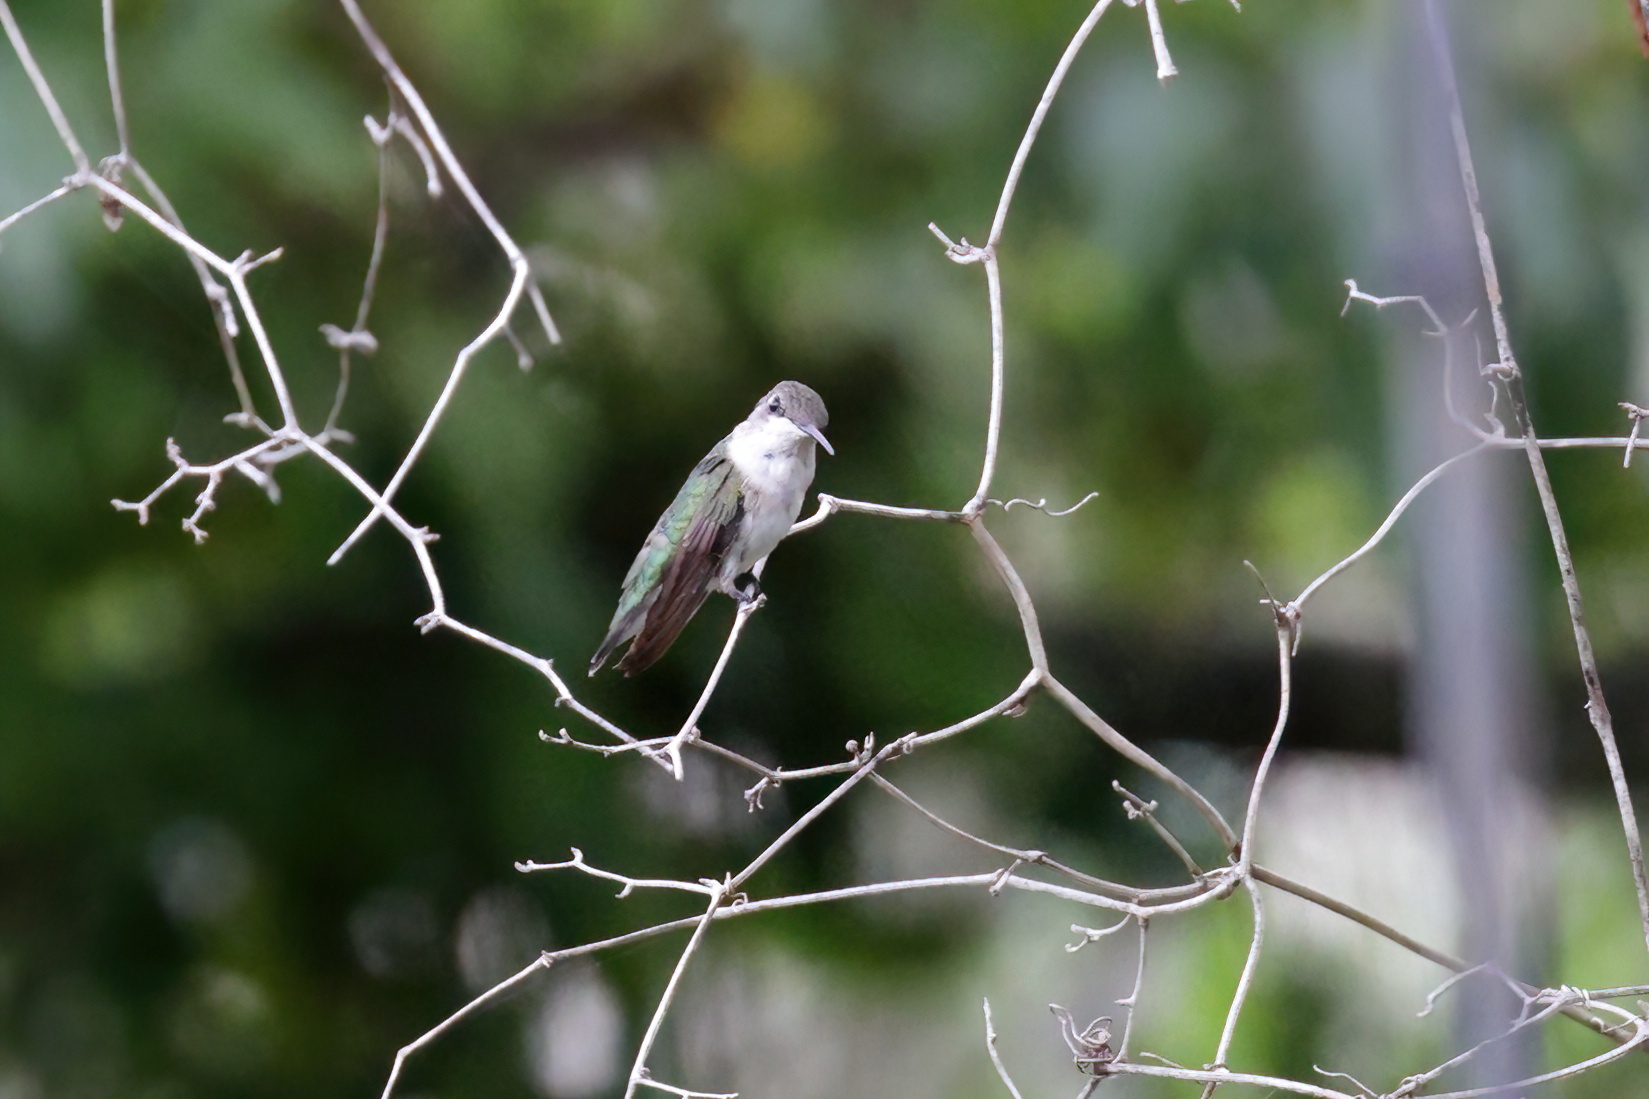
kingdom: Animalia
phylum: Chordata
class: Aves
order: Apodiformes
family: Trochilidae
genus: Archilochus
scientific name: Archilochus colubris
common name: Ruby-throated hummingbird
